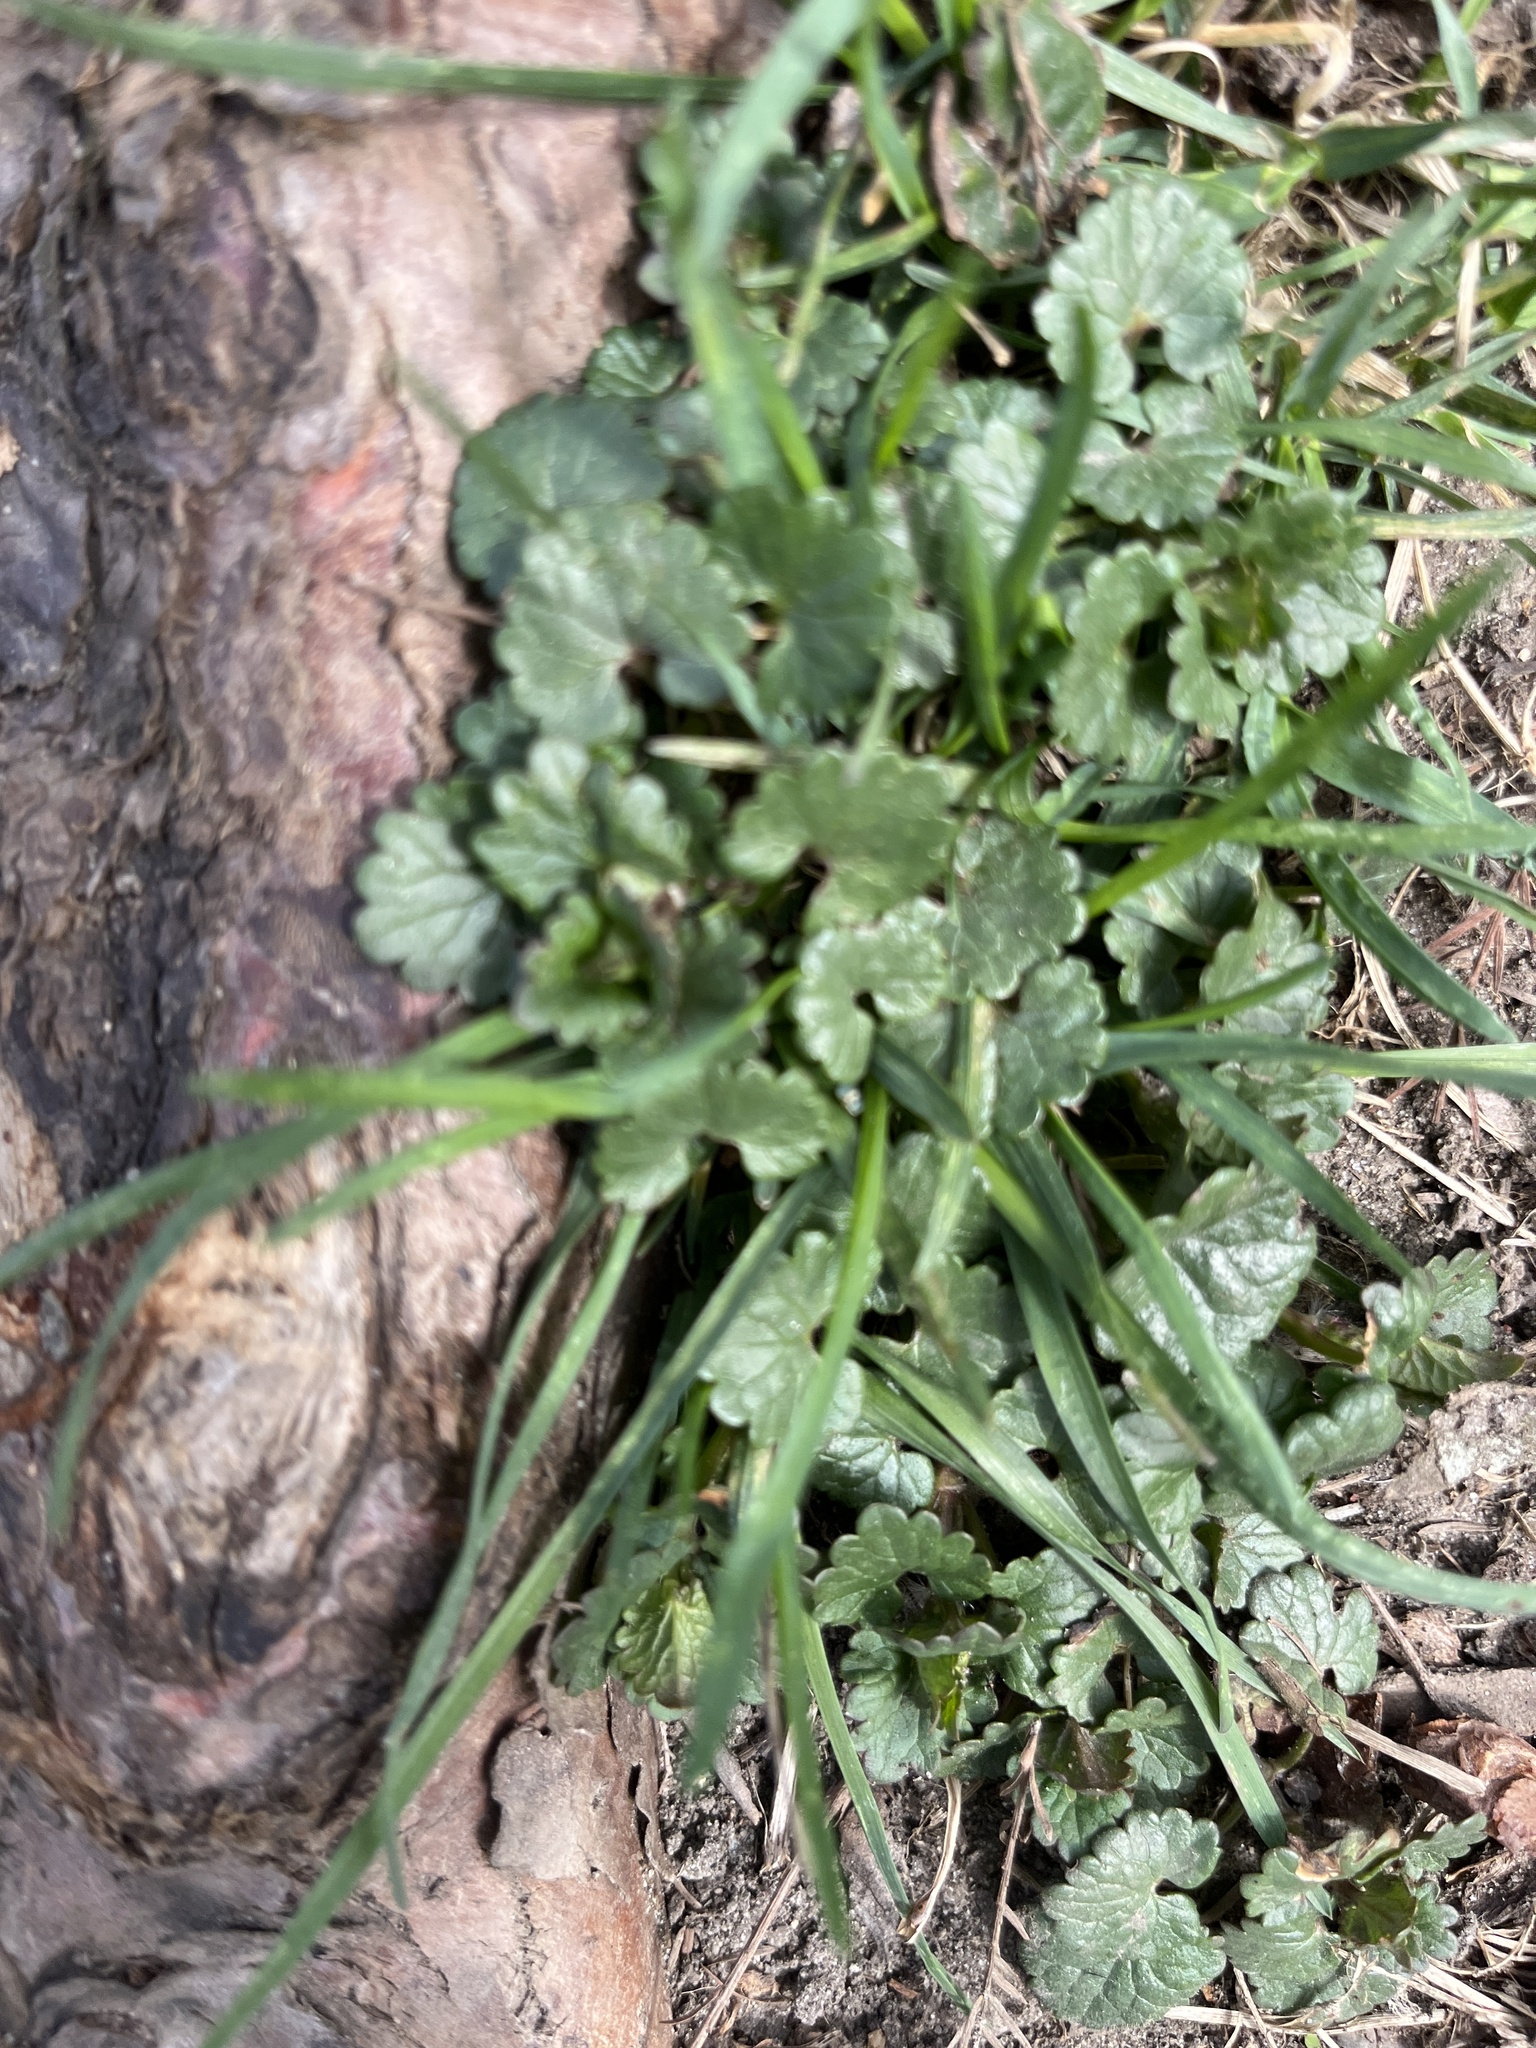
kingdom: Plantae
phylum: Tracheophyta
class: Magnoliopsida
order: Lamiales
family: Lamiaceae
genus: Glechoma
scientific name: Glechoma hederacea
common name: Ground ivy
